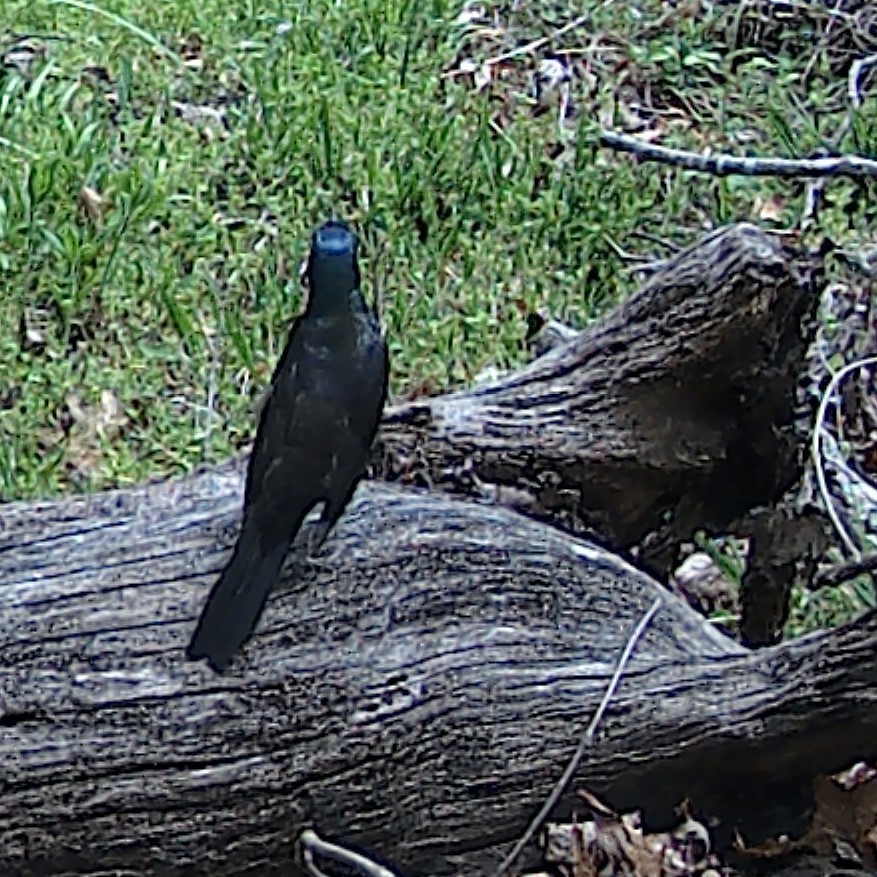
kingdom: Animalia
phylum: Chordata
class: Aves
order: Passeriformes
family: Icteridae
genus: Quiscalus
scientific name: Quiscalus quiscula
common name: Common grackle
